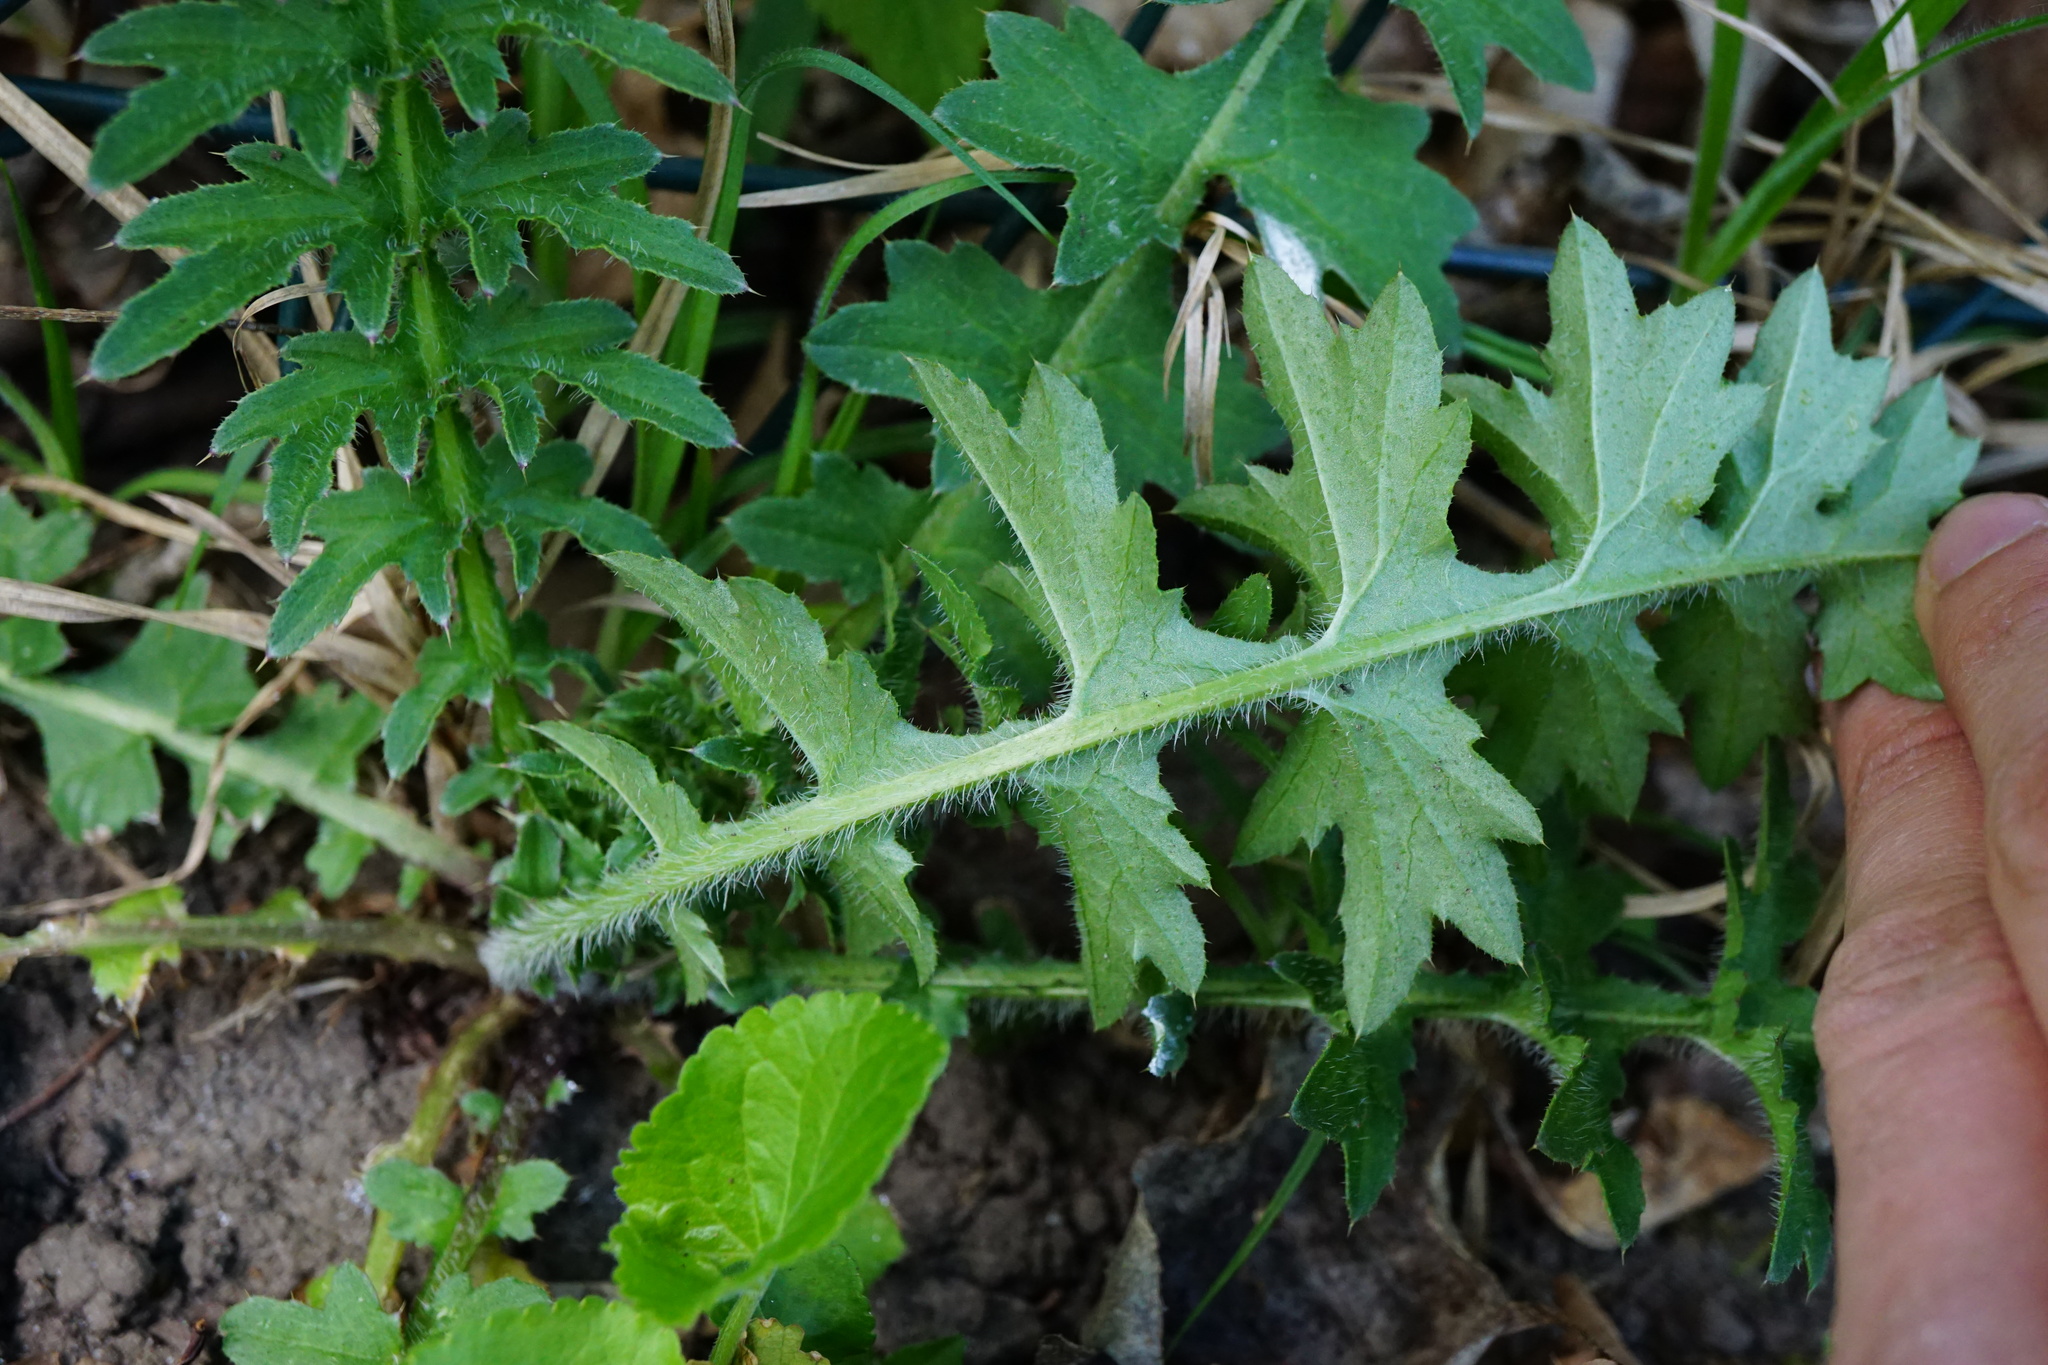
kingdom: Plantae
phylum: Tracheophyta
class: Magnoliopsida
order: Asterales
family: Asteraceae
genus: Carduus
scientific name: Carduus acanthoides
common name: Plumeless thistle
